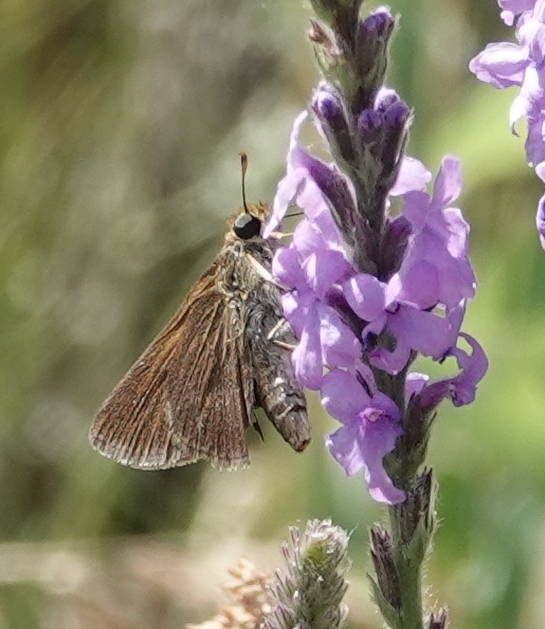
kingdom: Animalia
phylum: Arthropoda
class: Insecta
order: Lepidoptera
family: Hesperiidae
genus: Euphyes
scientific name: Euphyes vestris
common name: Dun skipper
